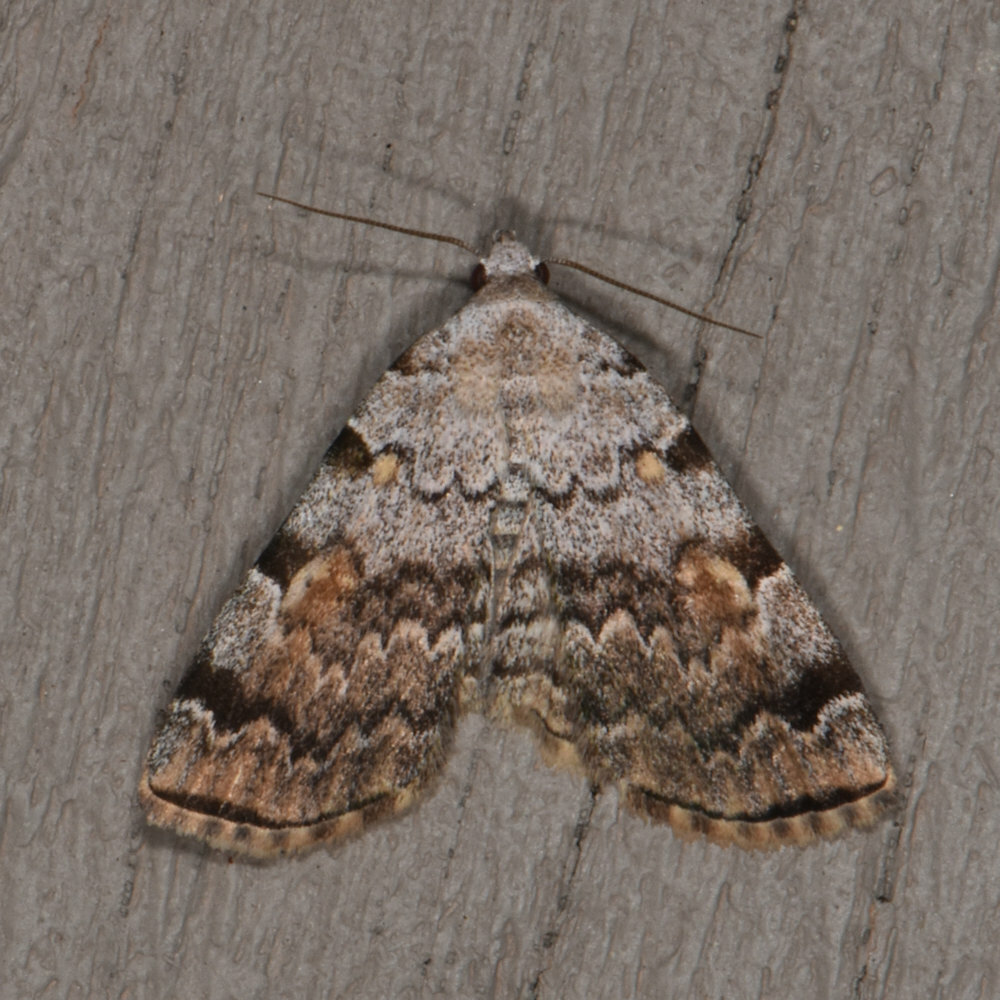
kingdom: Animalia
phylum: Arthropoda
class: Insecta
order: Lepidoptera
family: Erebidae
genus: Idia
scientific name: Idia americalis
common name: American idia moth
